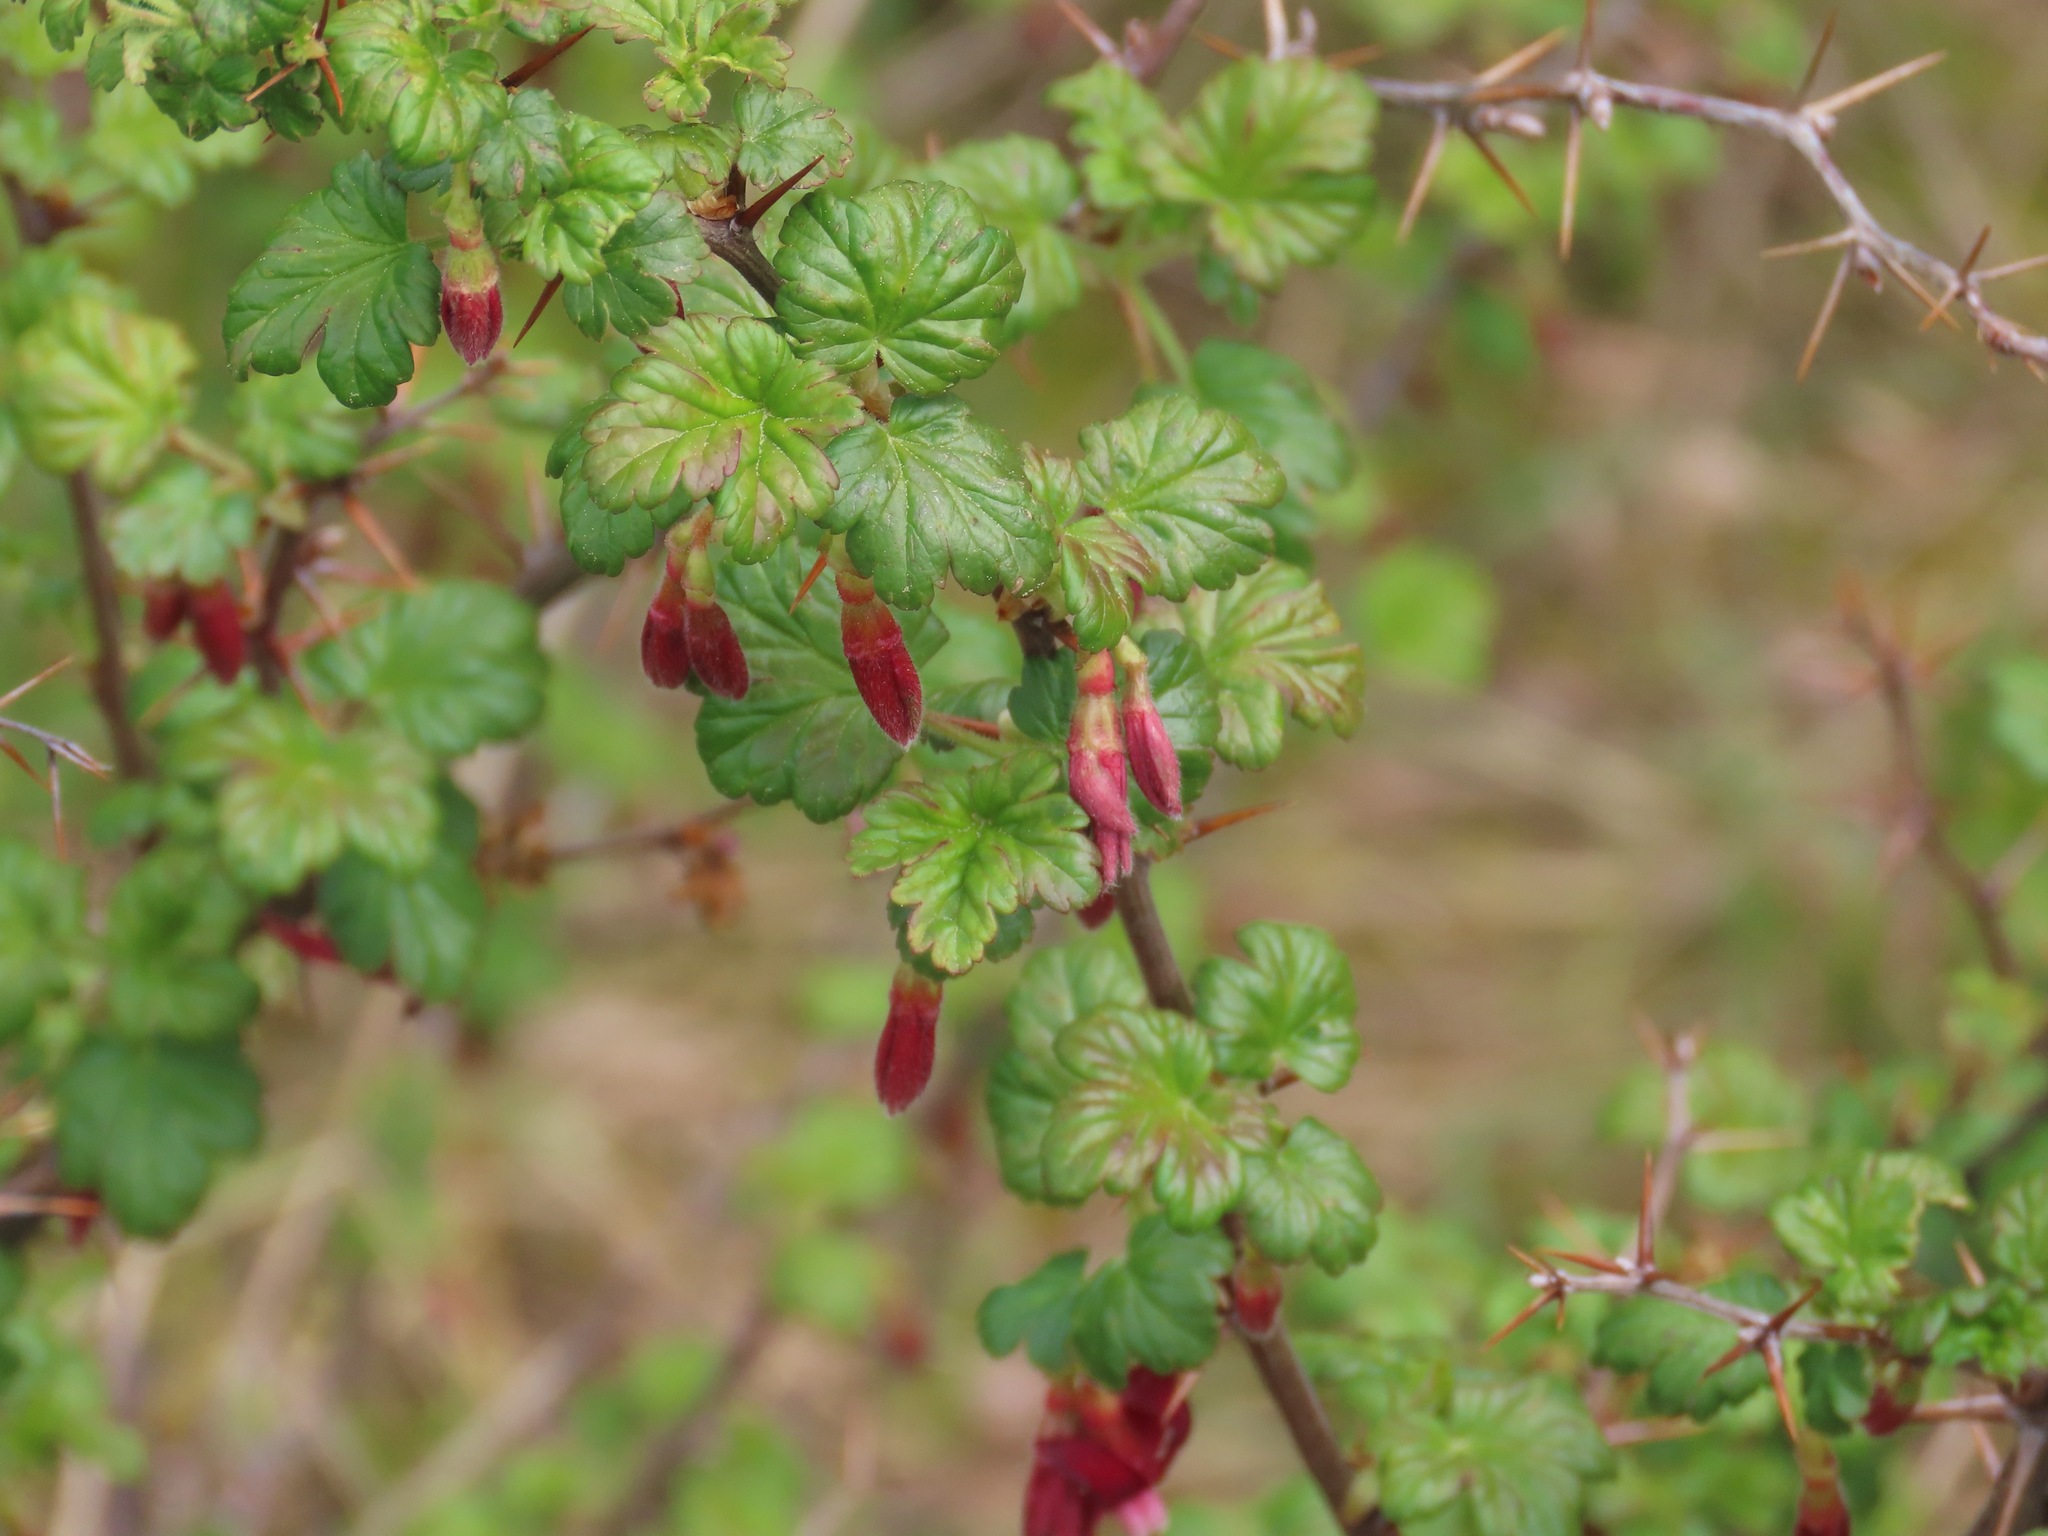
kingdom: Plantae
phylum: Tracheophyta
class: Magnoliopsida
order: Saxifragales
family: Grossulariaceae
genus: Ribes
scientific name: Ribes lobbii
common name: Gummy gooseberry
